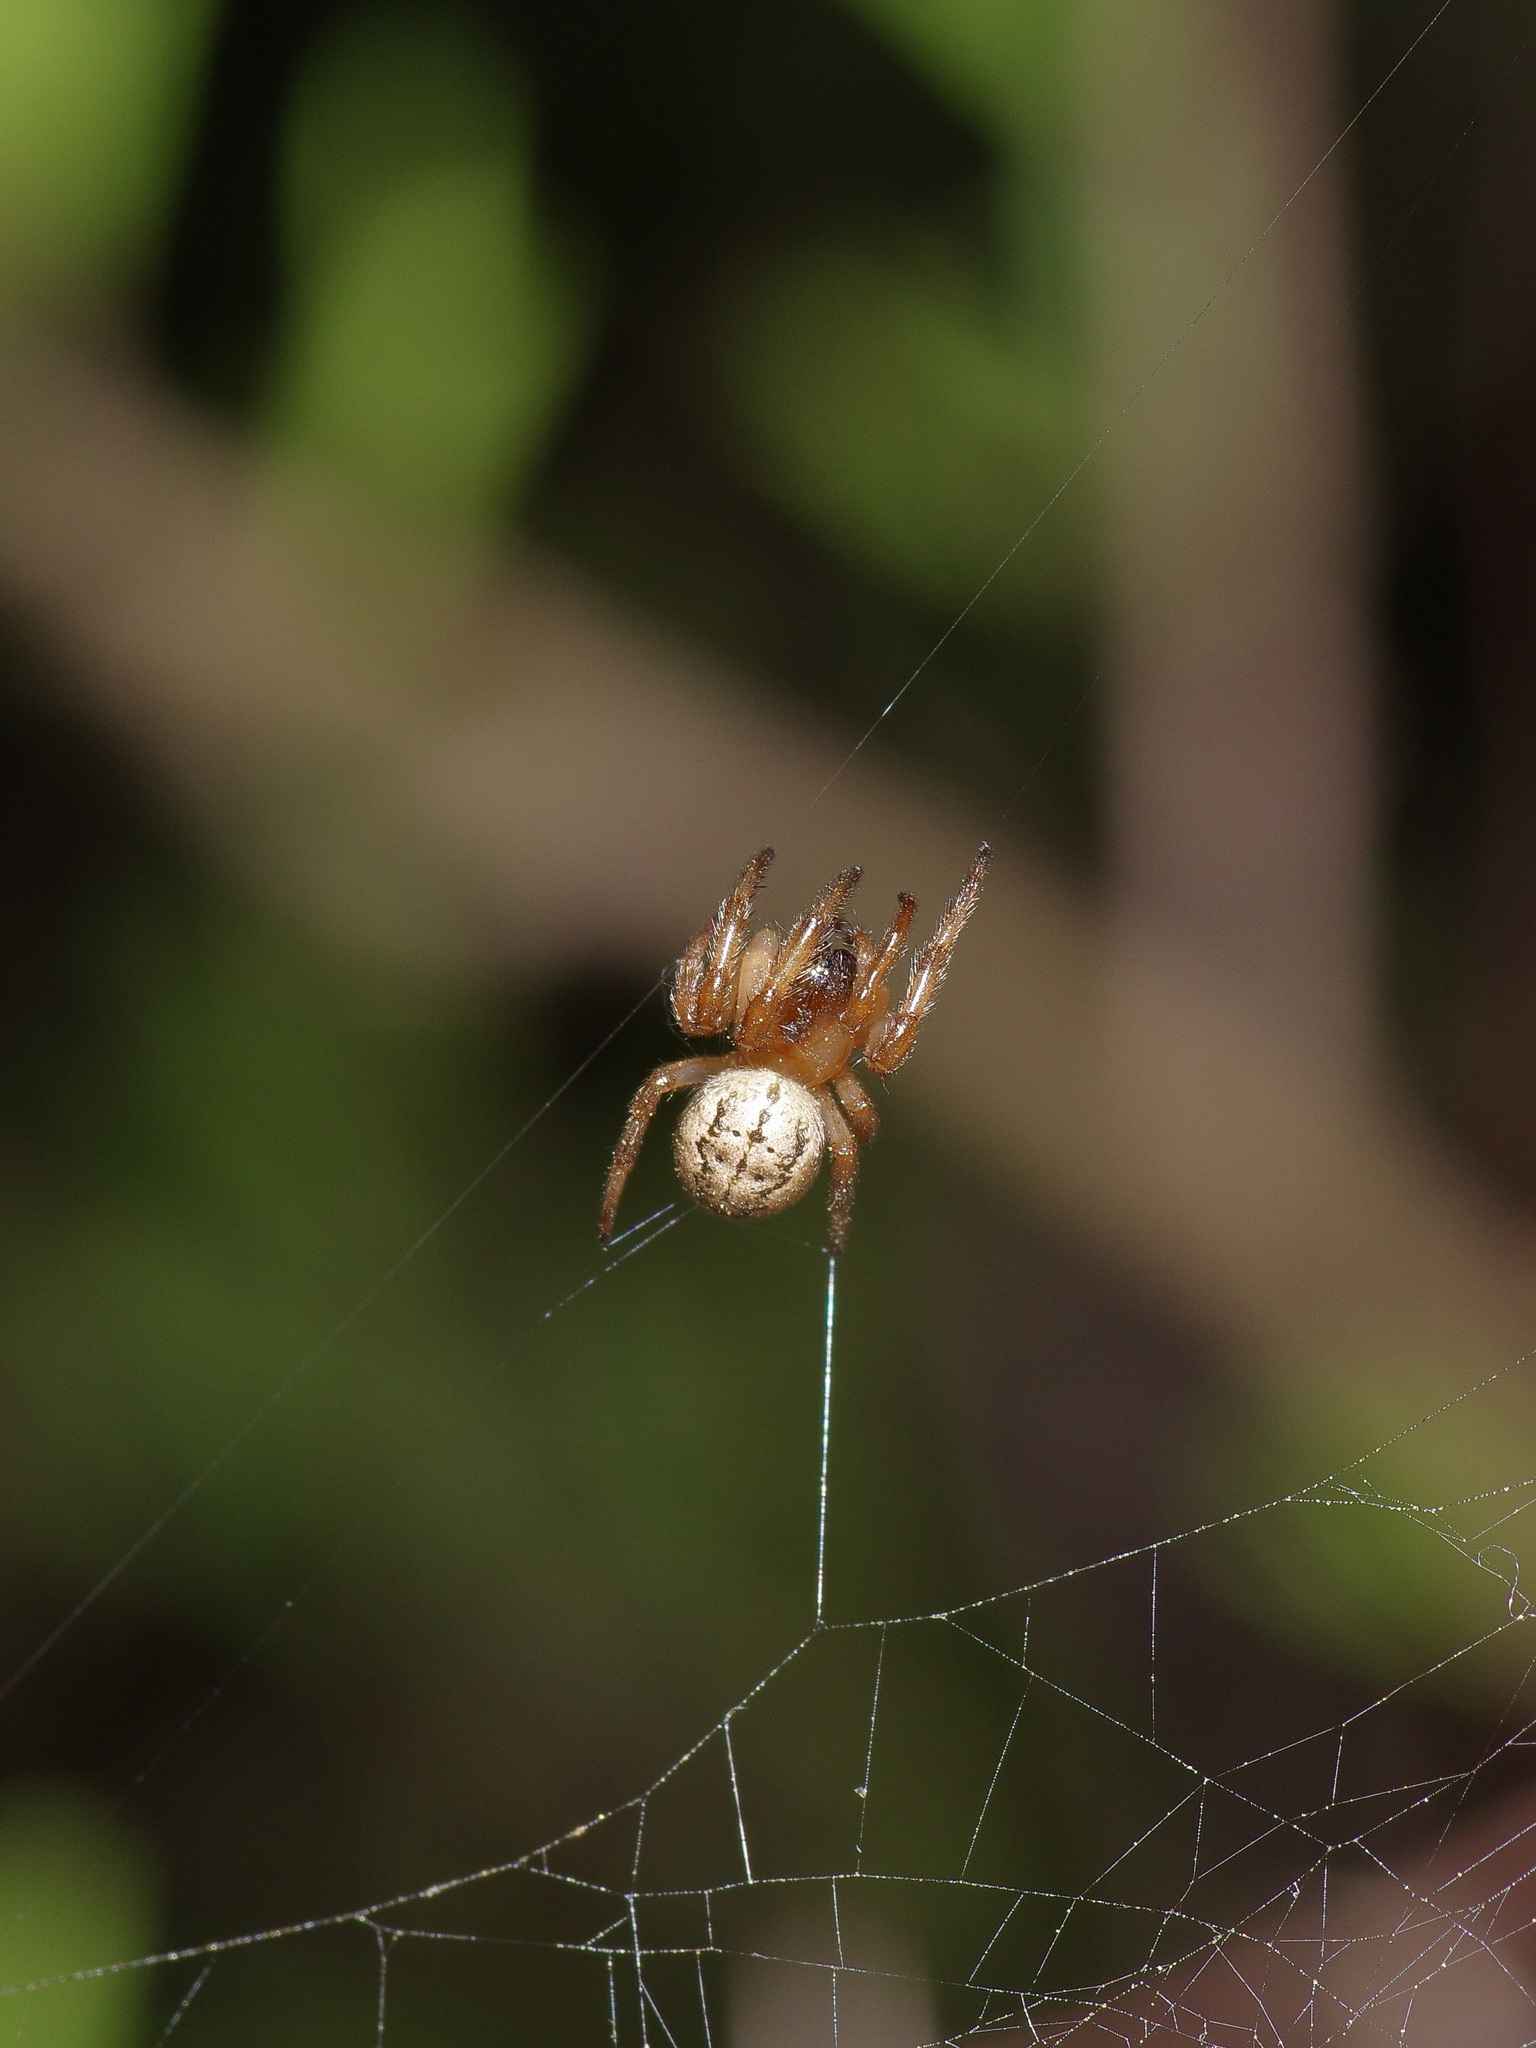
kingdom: Animalia
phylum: Arthropoda
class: Arachnida
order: Araneae
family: Araneidae
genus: Metazygia
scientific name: Metazygia wittfeldae
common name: Orb weavers
